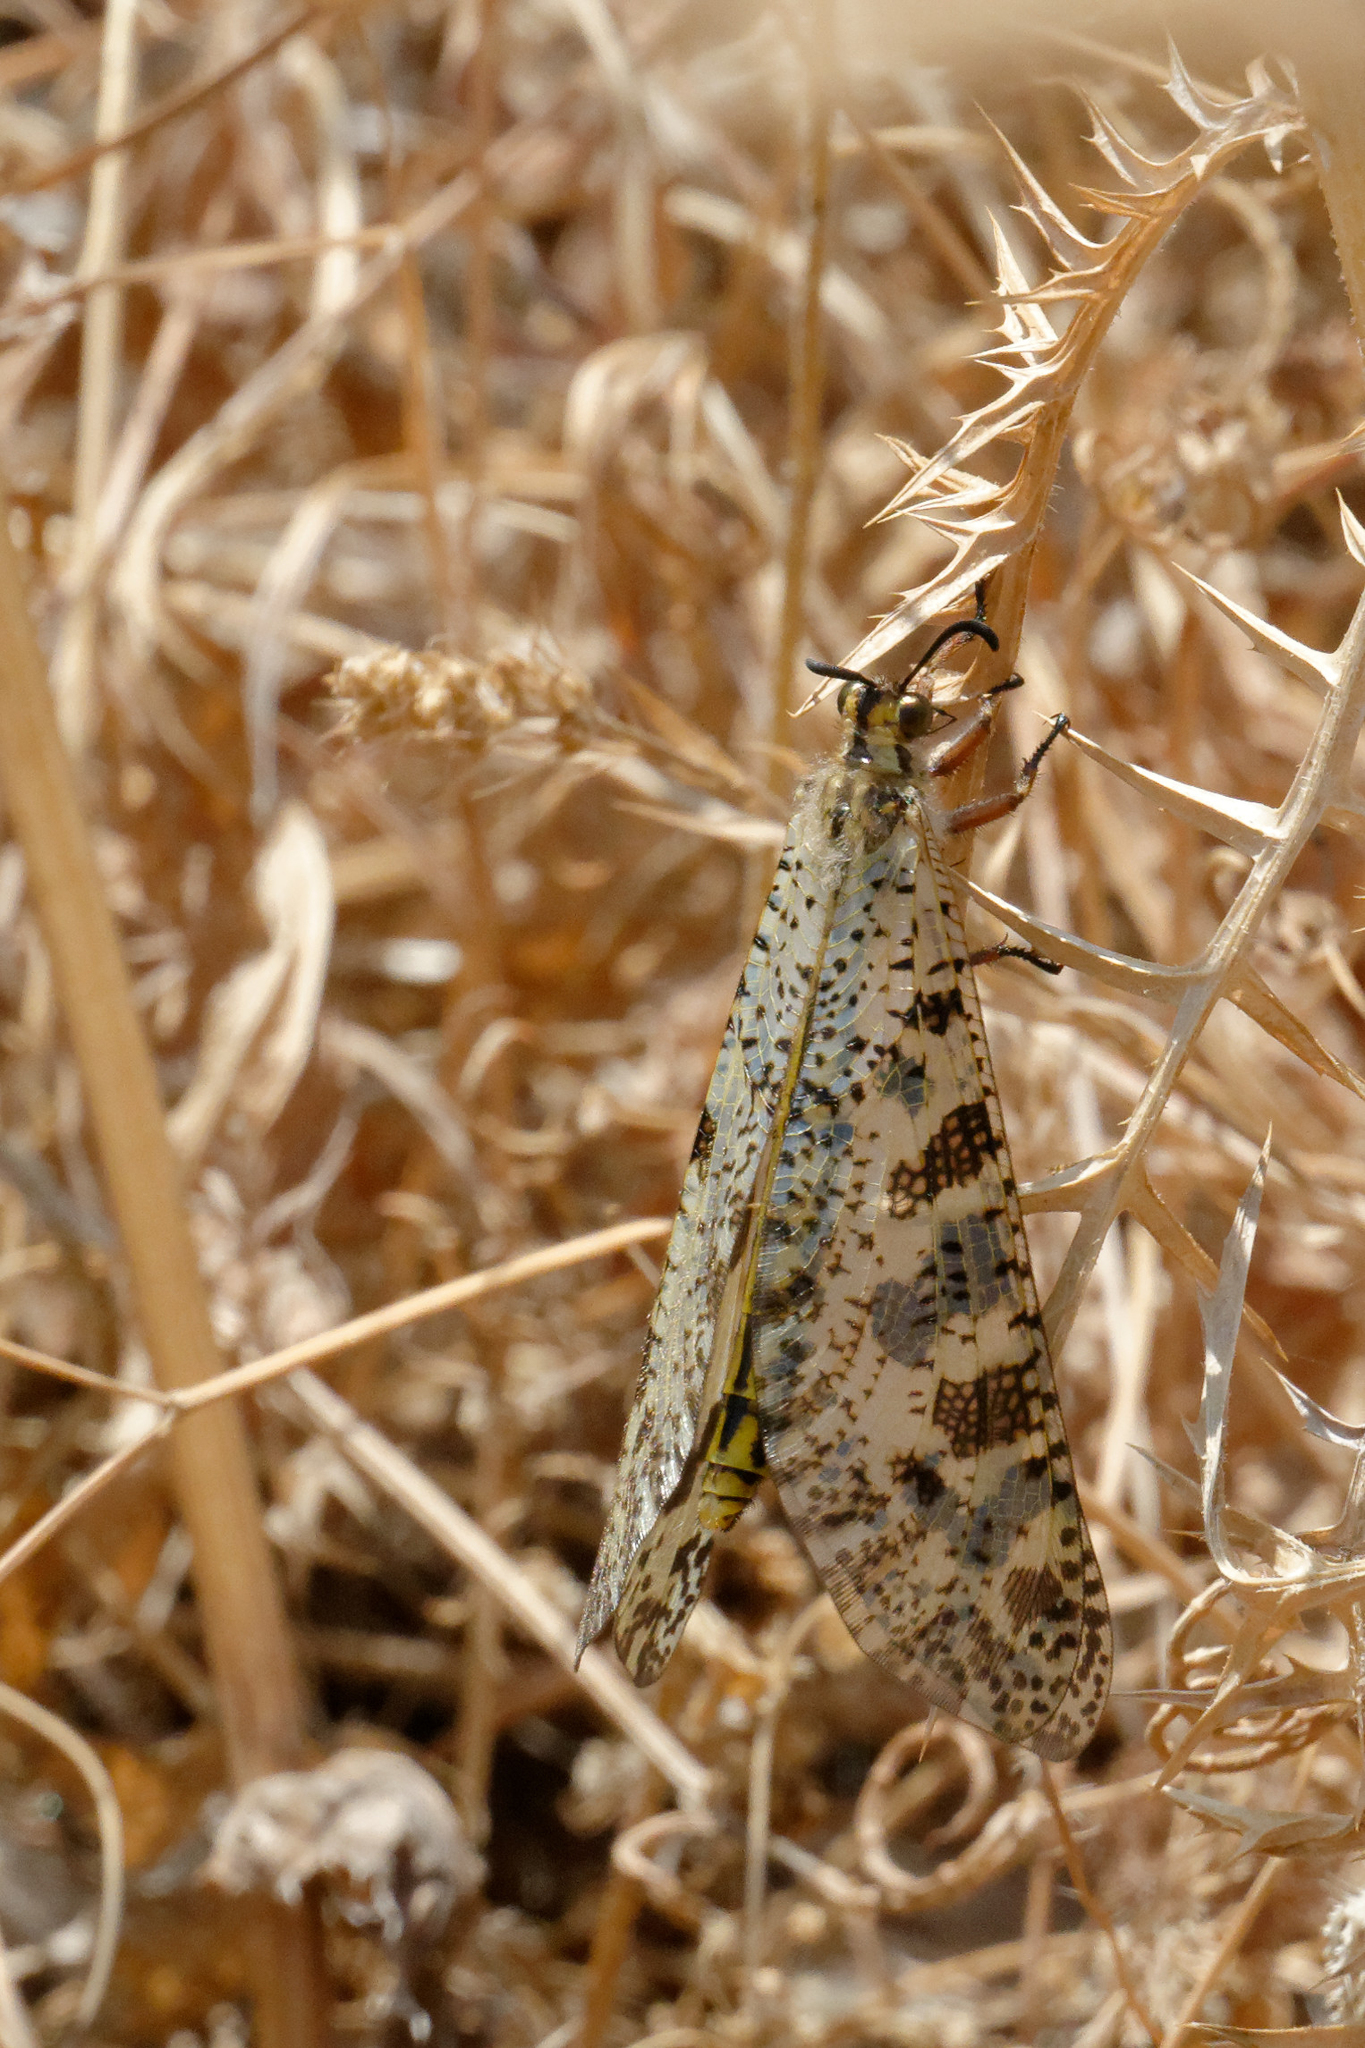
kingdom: Animalia
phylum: Arthropoda
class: Insecta
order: Neuroptera
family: Myrmeleontidae
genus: Palpares
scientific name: Palpares libelluloides
